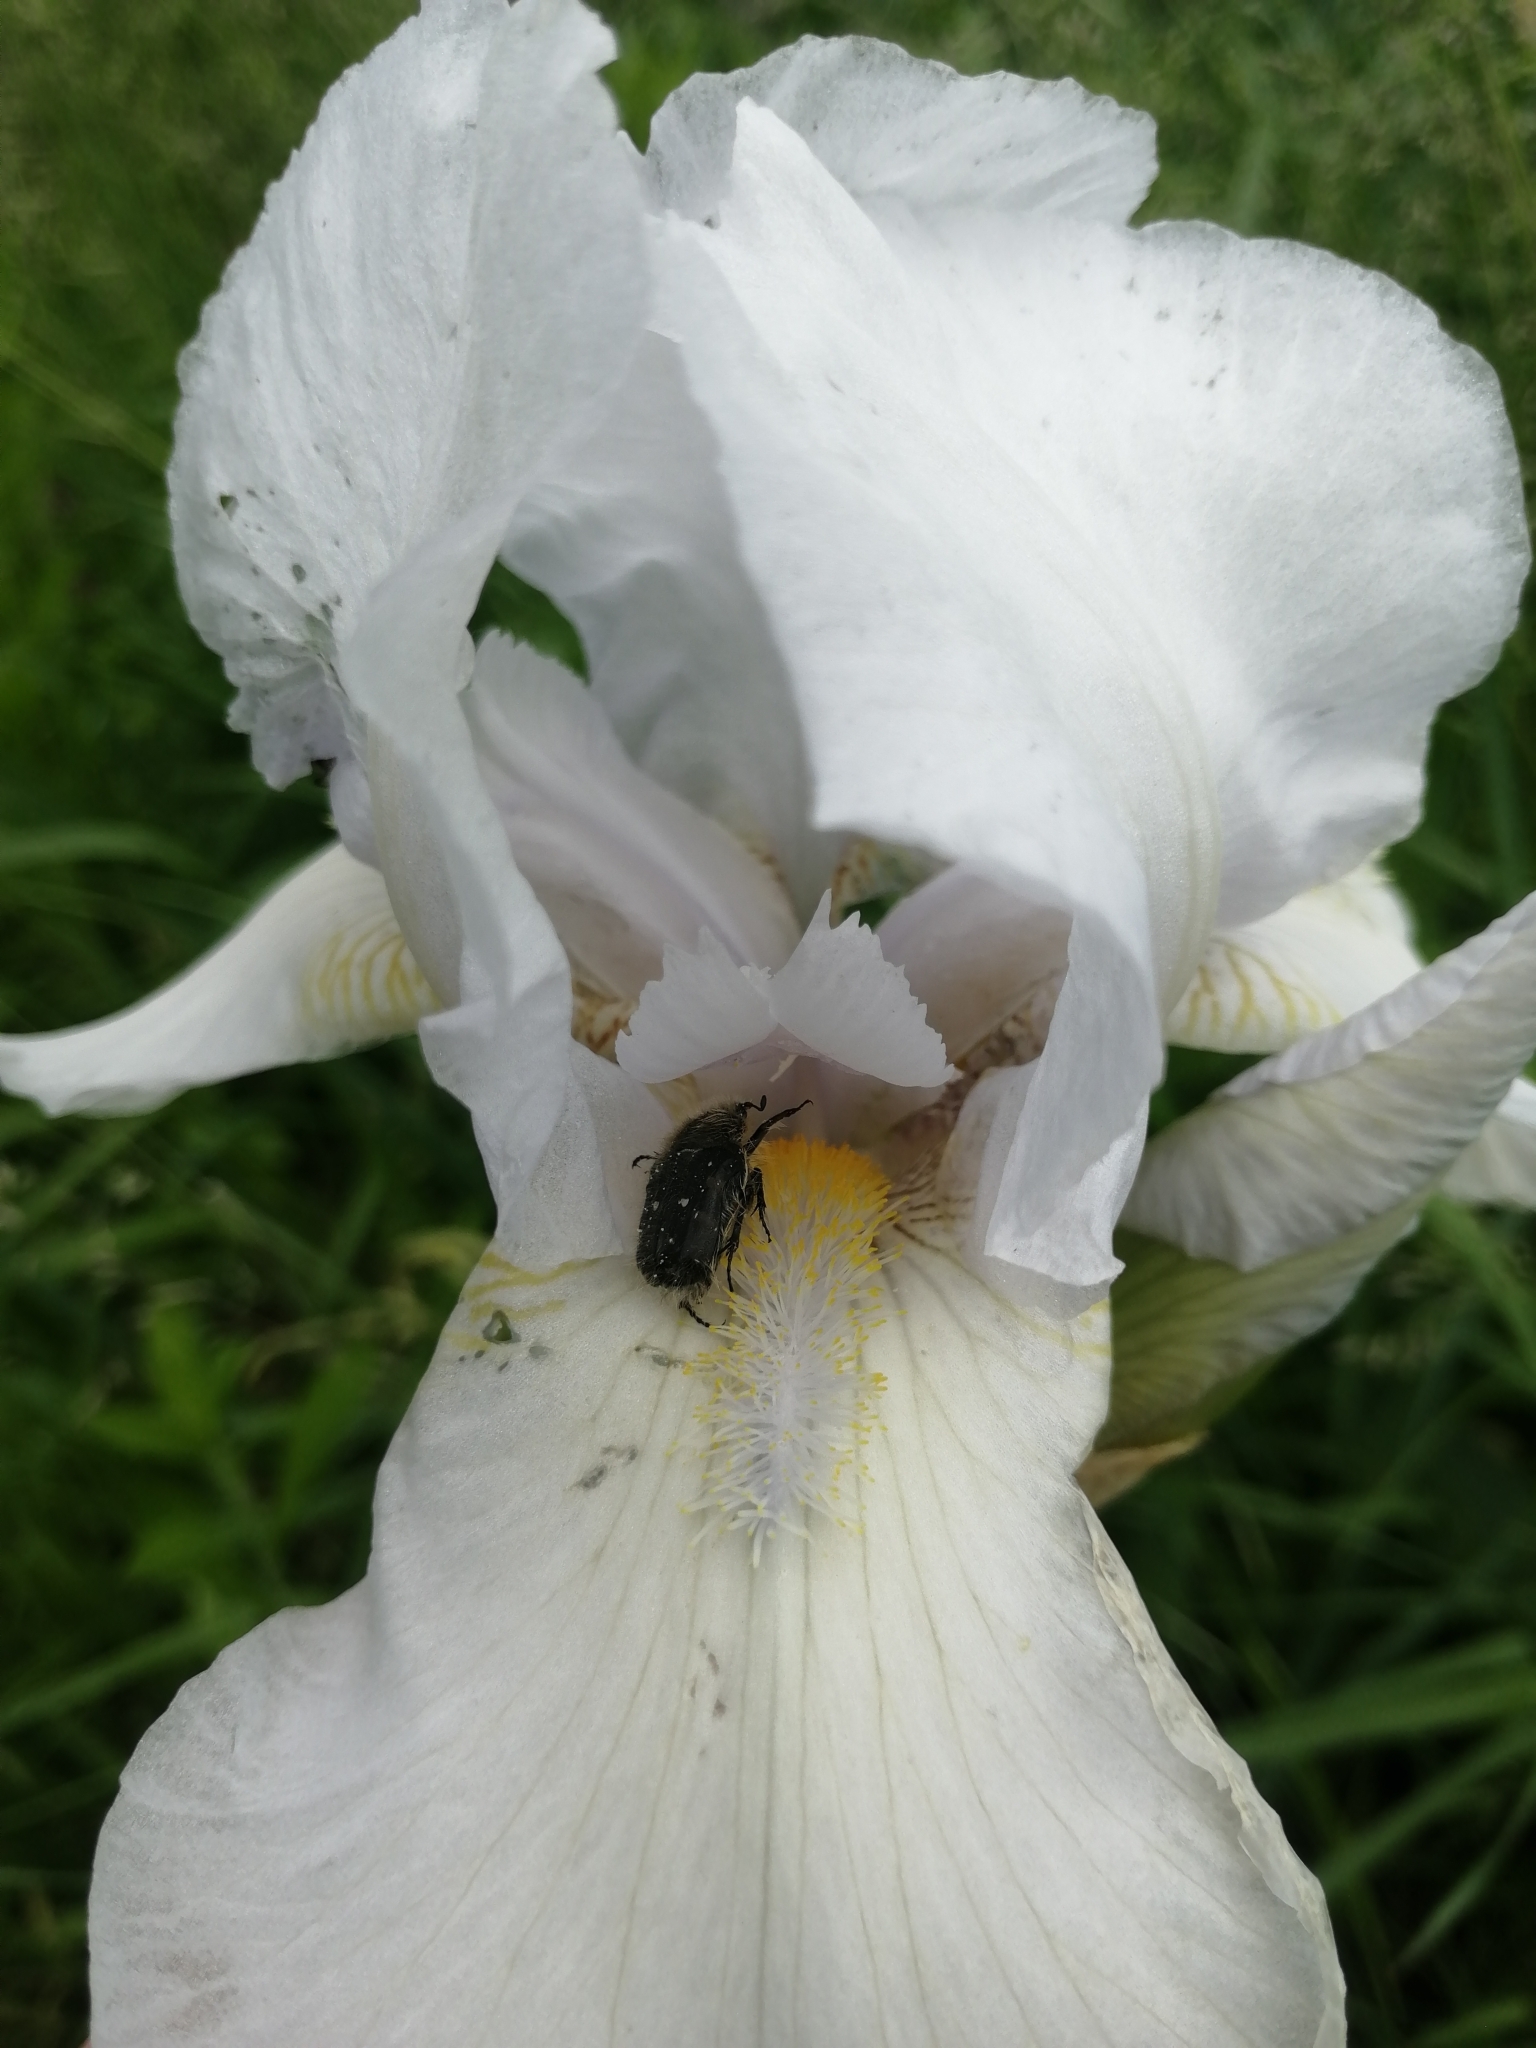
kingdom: Animalia
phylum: Arthropoda
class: Insecta
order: Coleoptera
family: Scarabaeidae
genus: Tropinota
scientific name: Tropinota hirta
